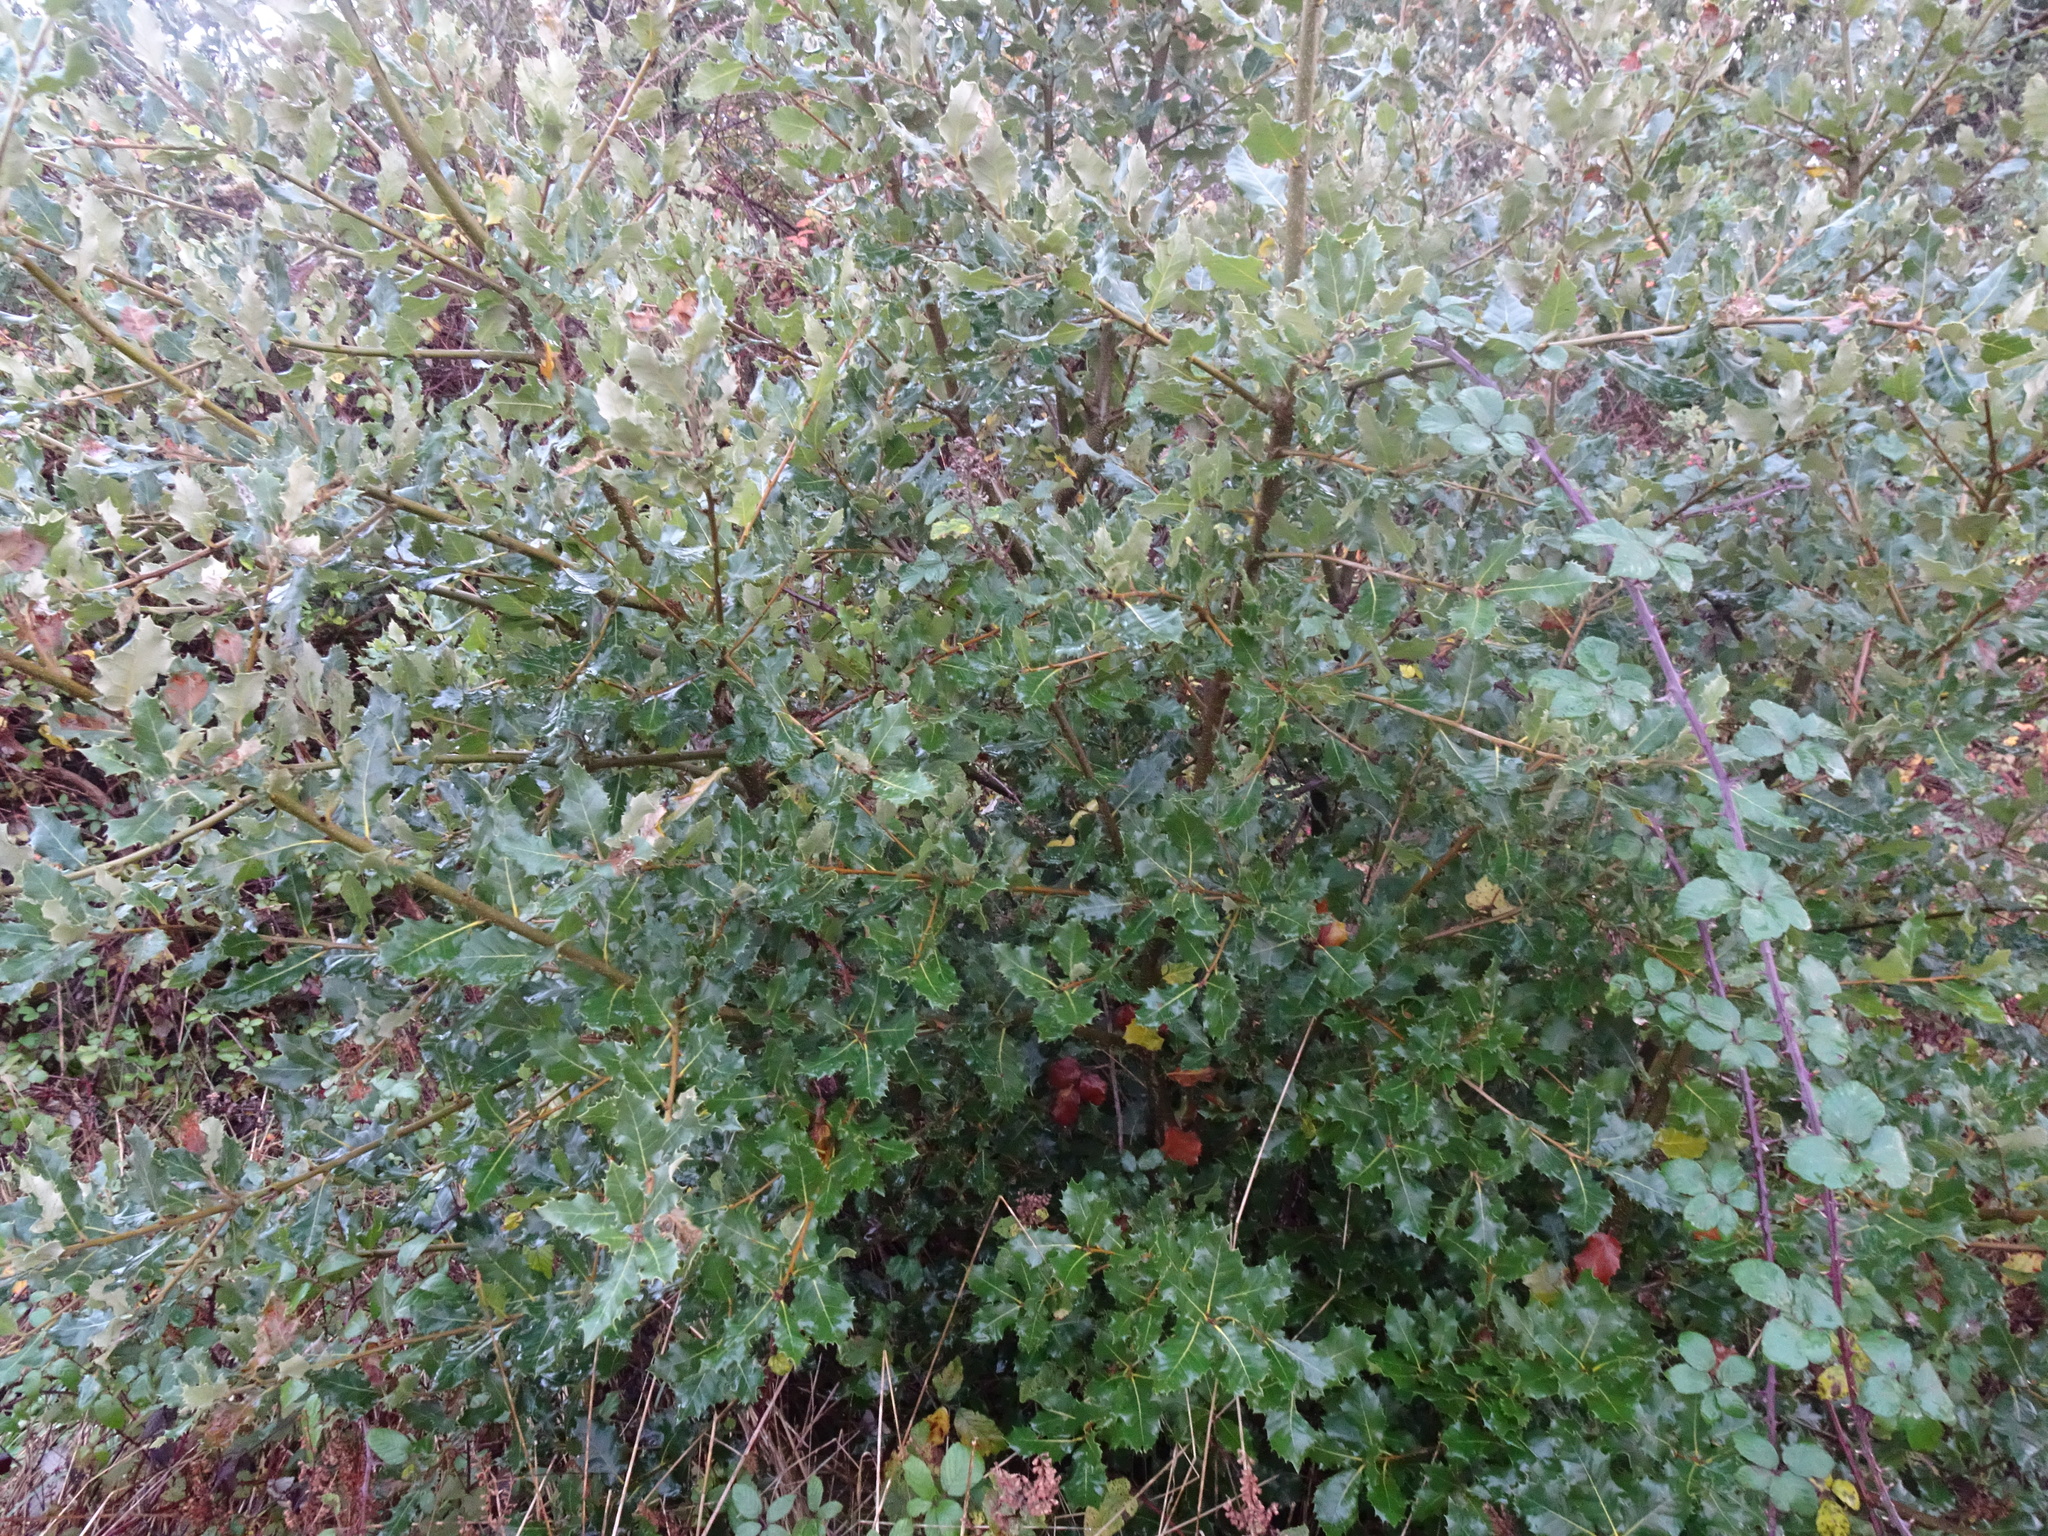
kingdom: Plantae
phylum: Tracheophyta
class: Magnoliopsida
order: Fagales
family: Fagaceae
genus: Quercus
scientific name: Quercus ilex
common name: Evergreen oak
